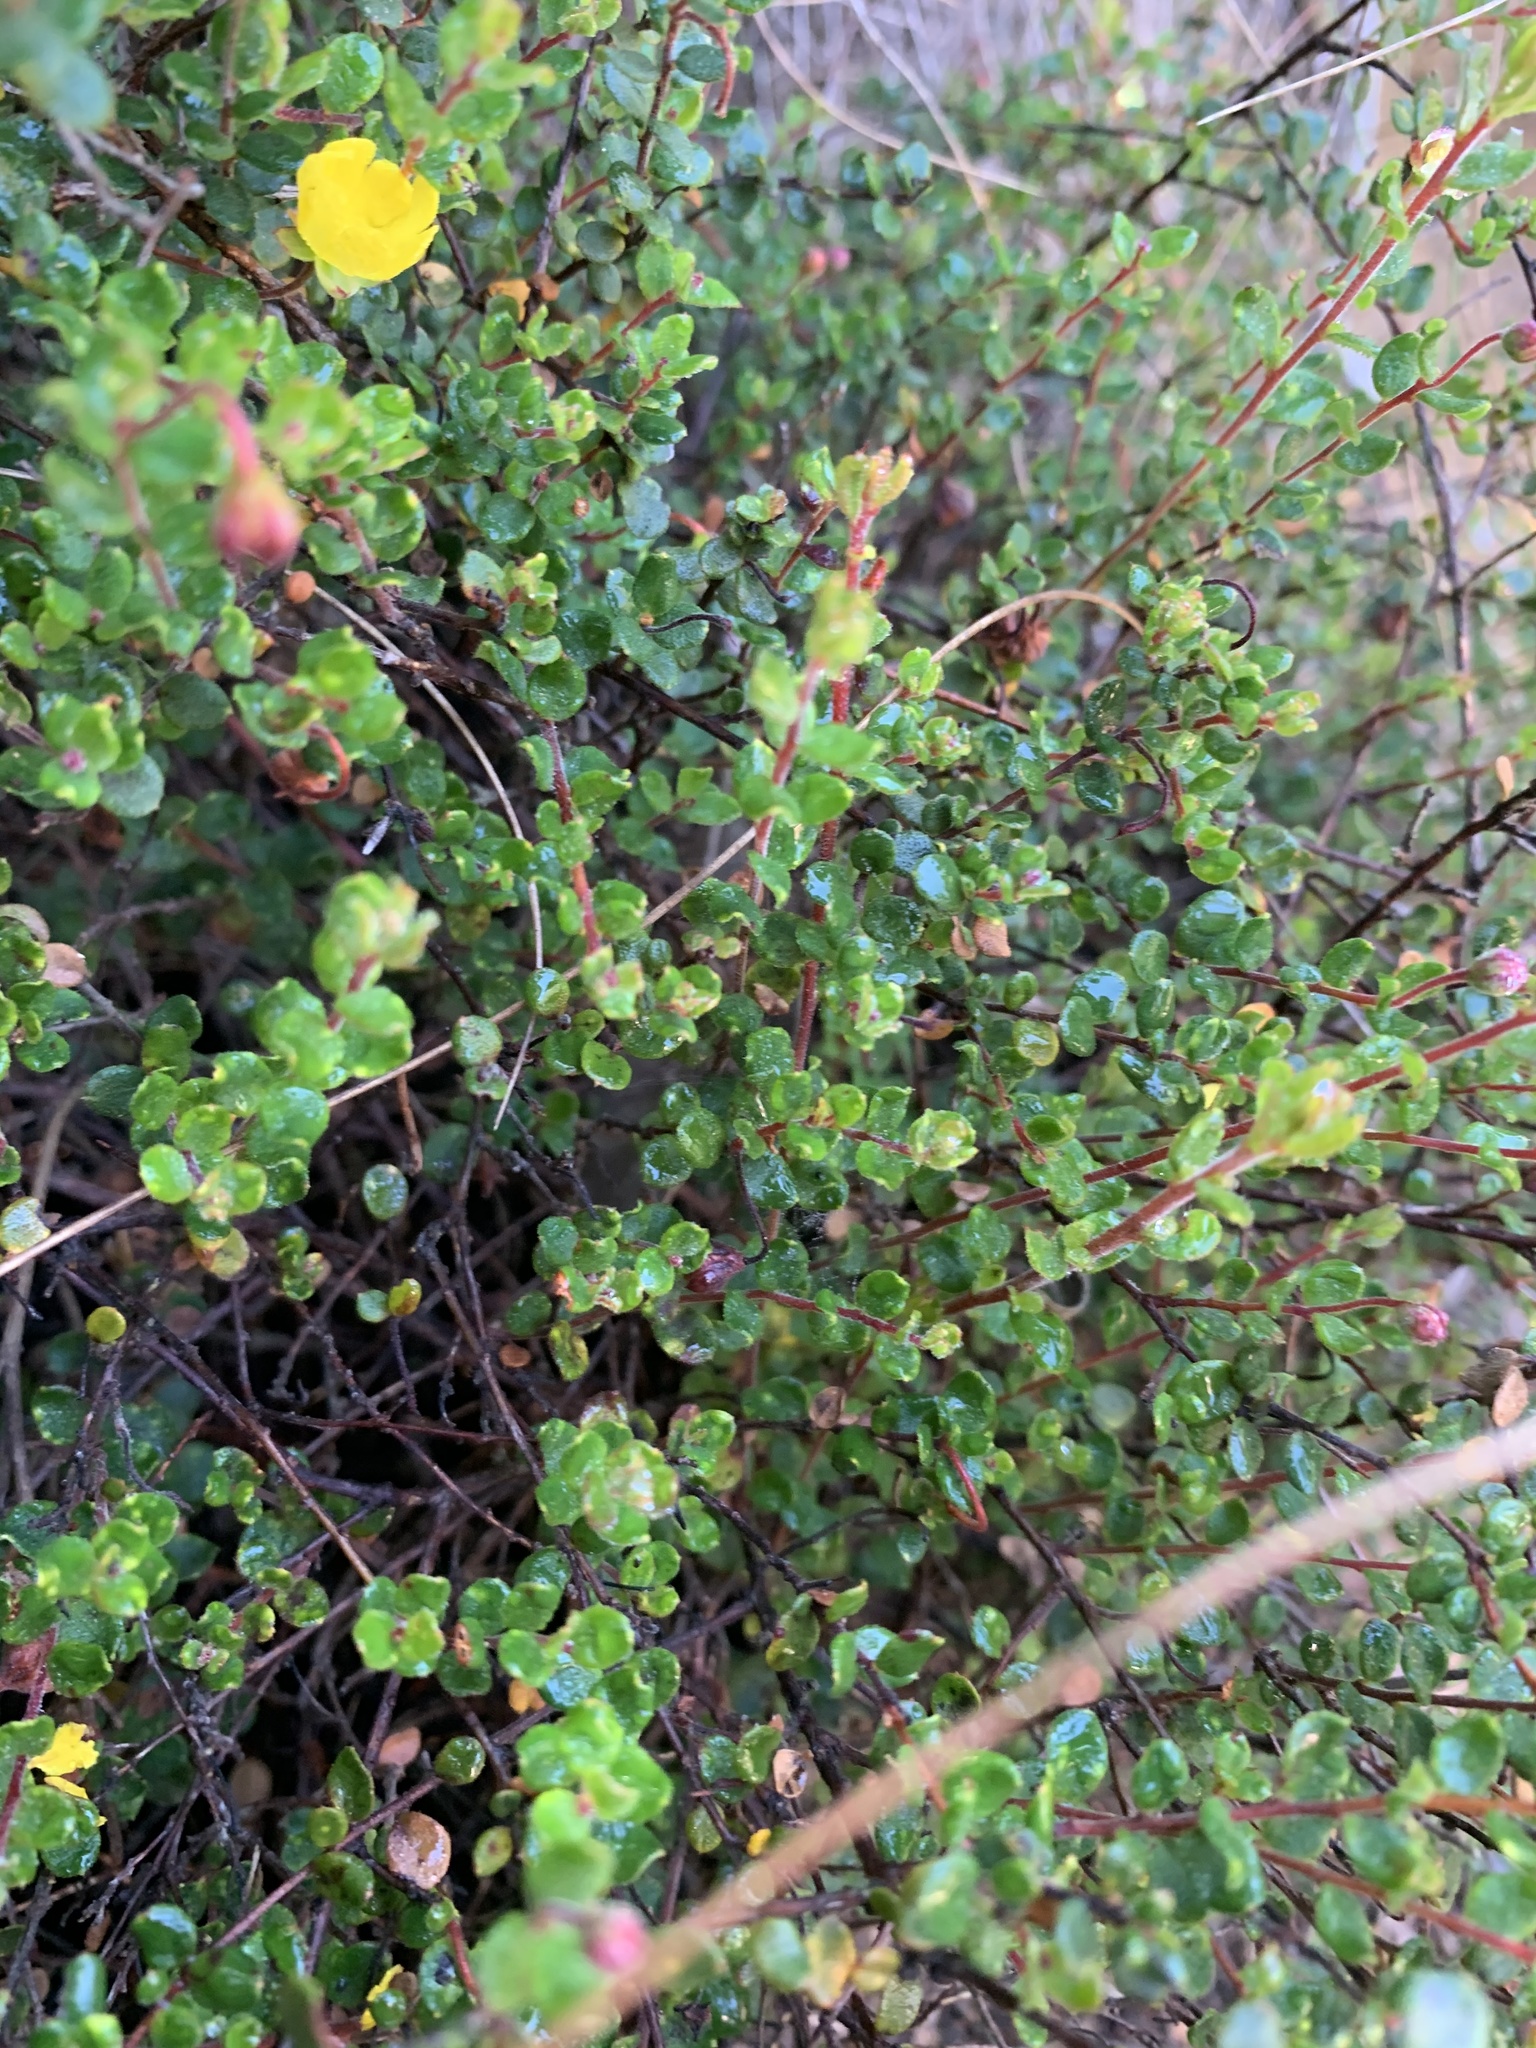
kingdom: Plantae
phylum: Tracheophyta
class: Magnoliopsida
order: Dilleniales
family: Dilleniaceae
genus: Hibbertia
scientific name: Hibbertia decumbens
